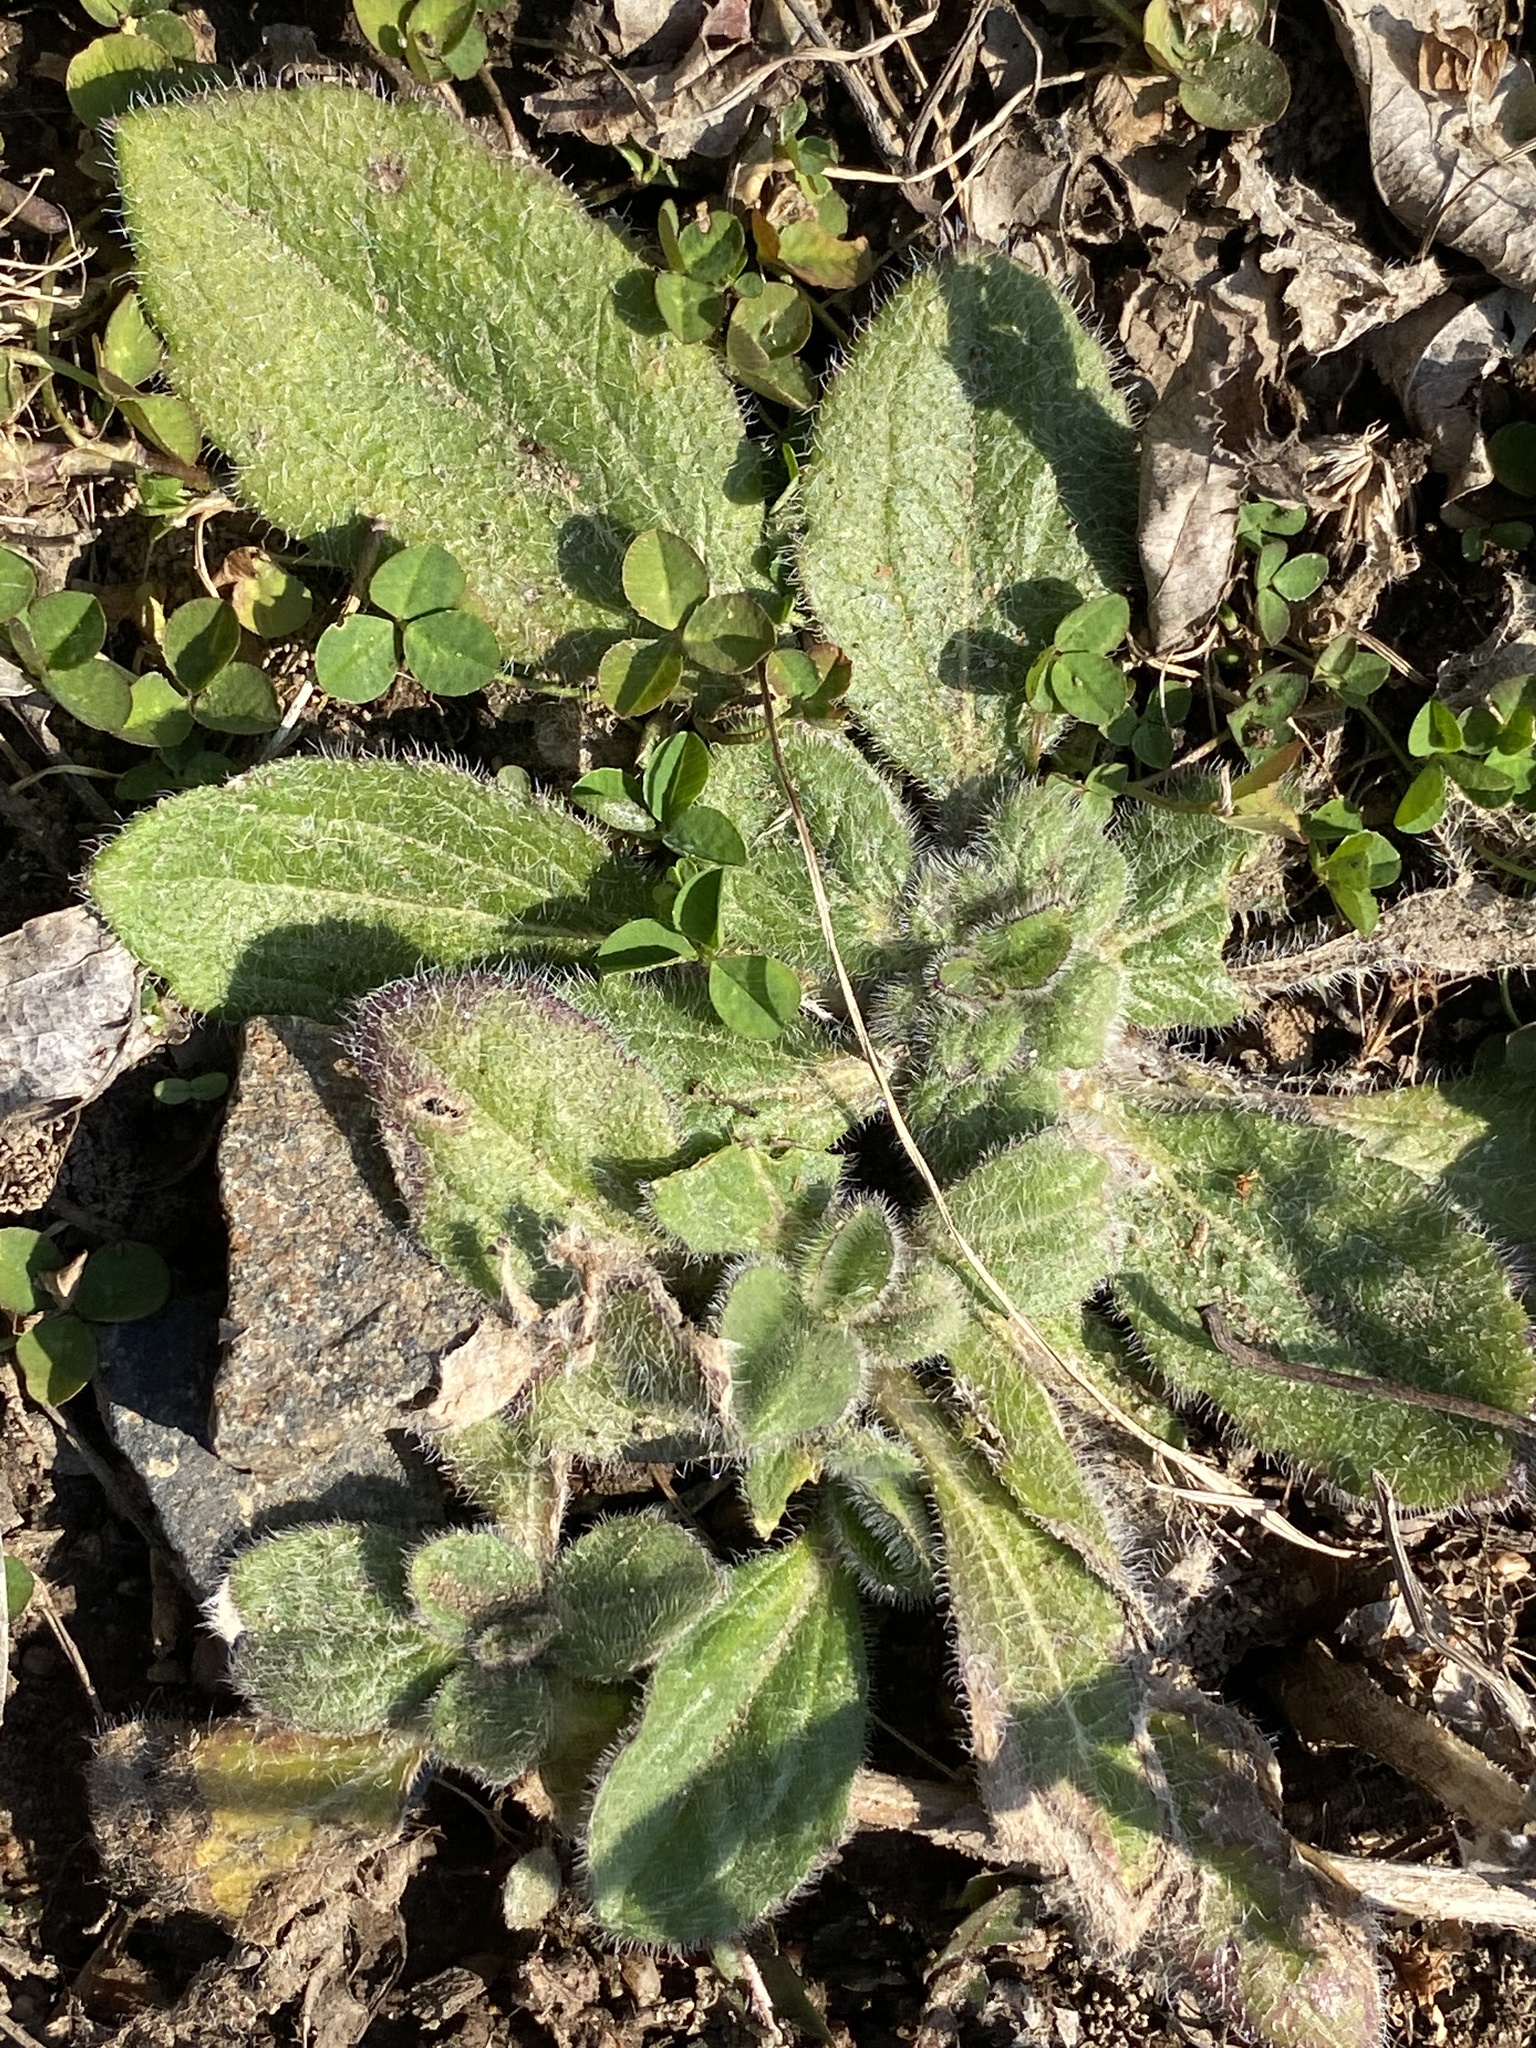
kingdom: Plantae
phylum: Tracheophyta
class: Magnoliopsida
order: Asterales
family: Asteraceae
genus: Rudbeckia
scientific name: Rudbeckia hirta
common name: Black-eyed-susan
